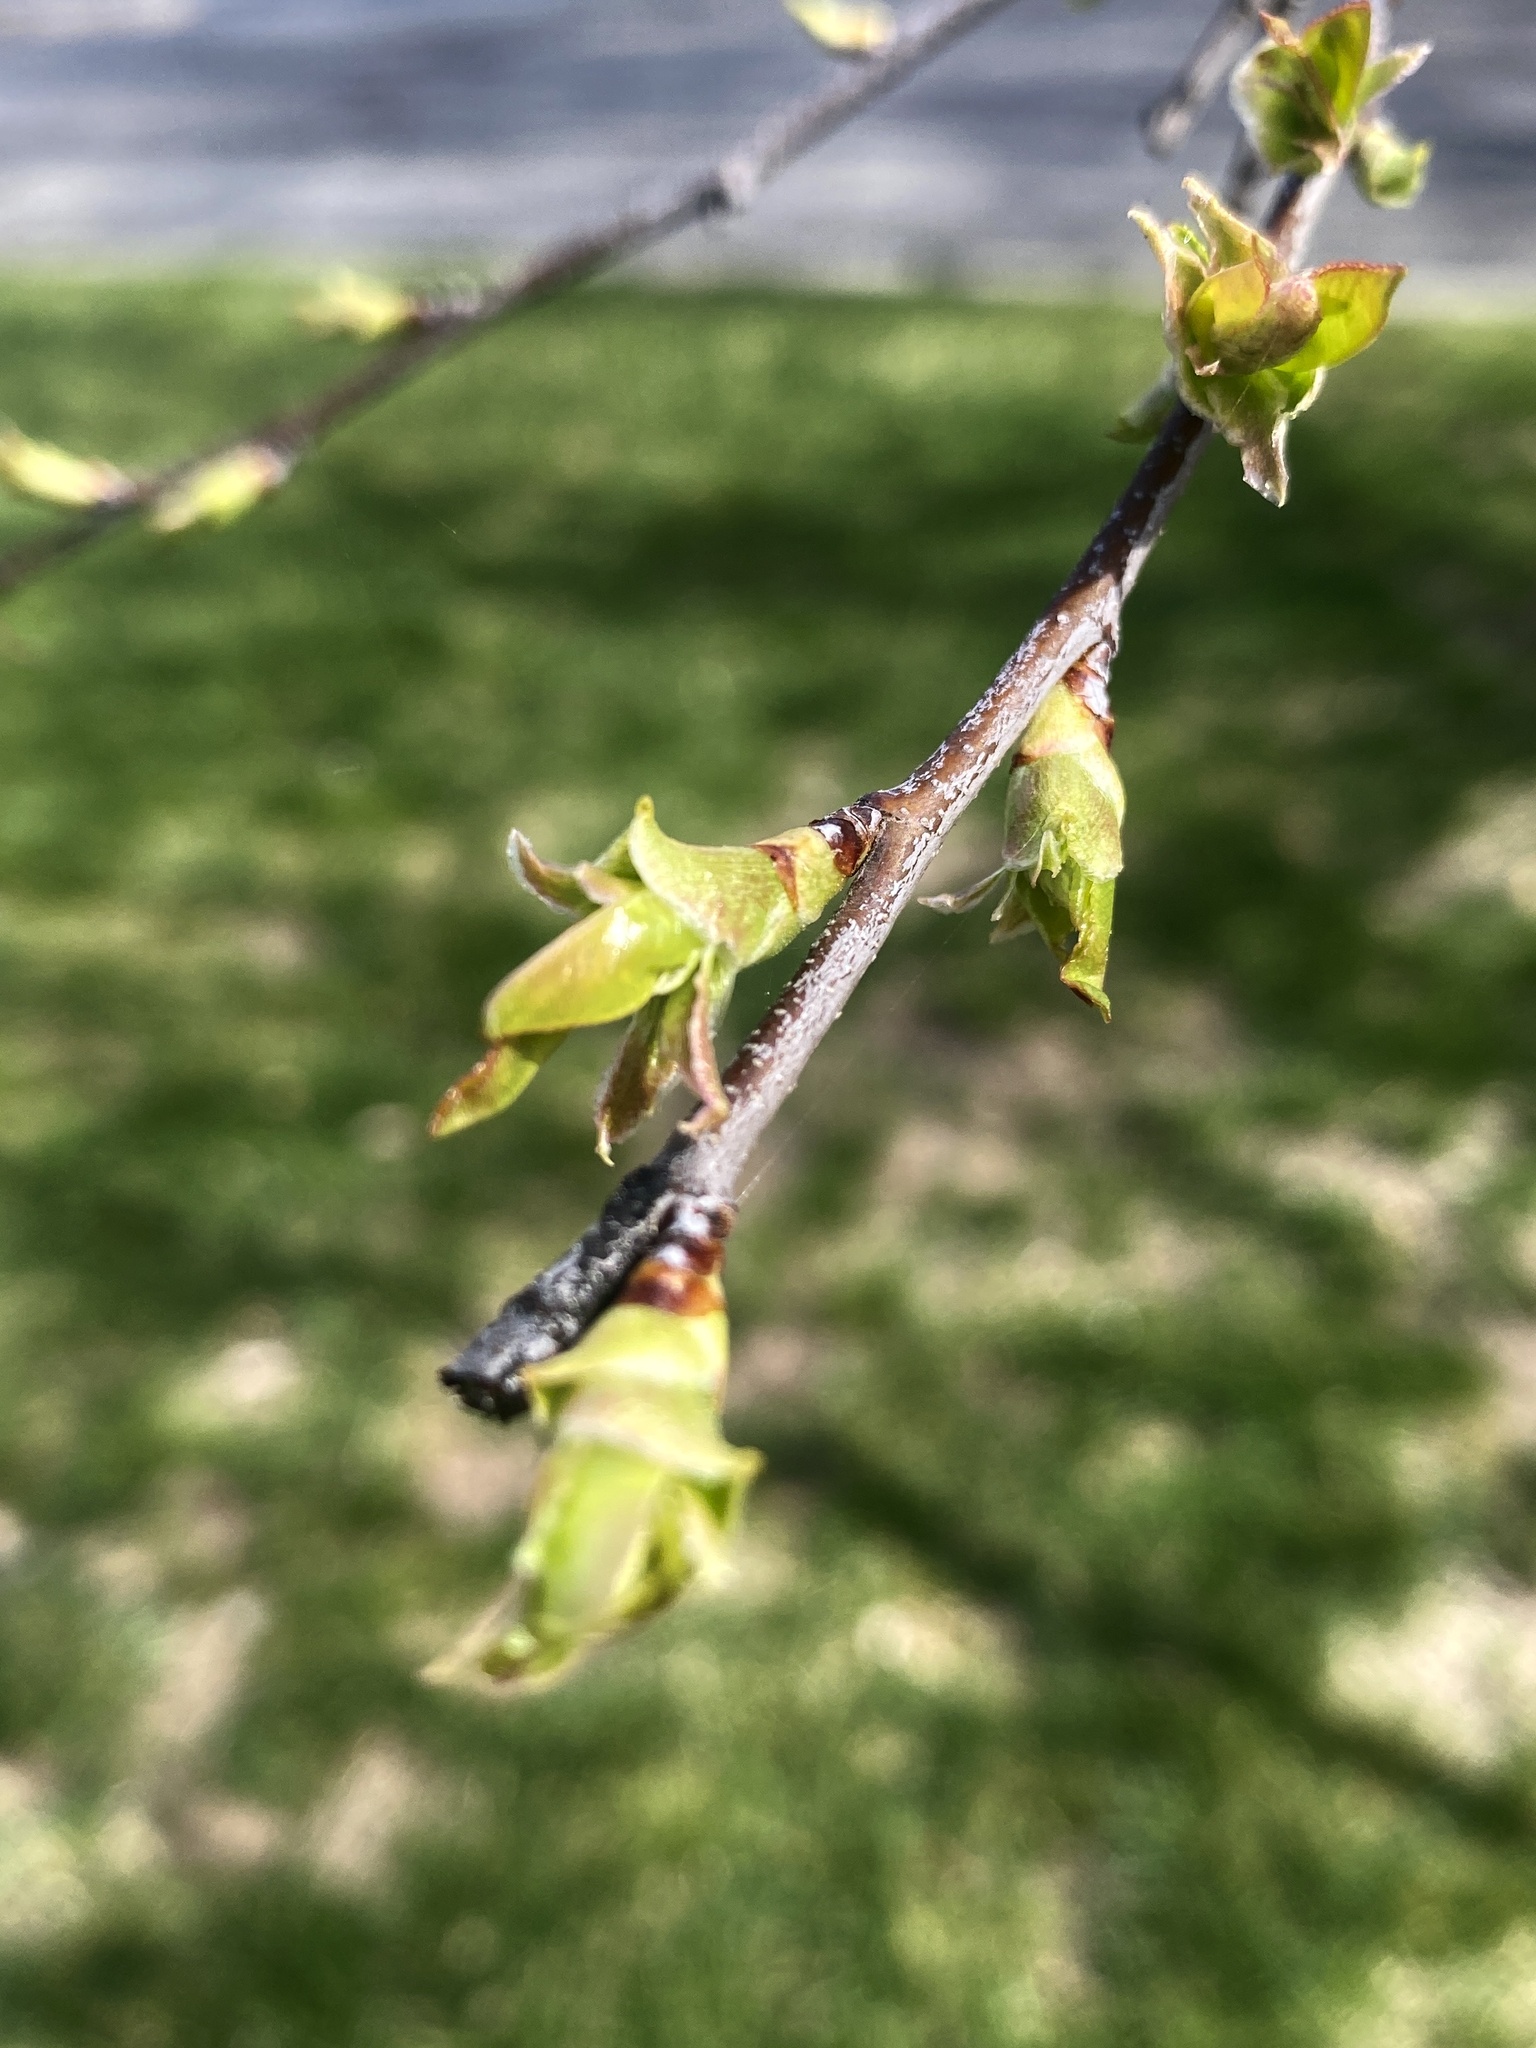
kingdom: Plantae
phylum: Tracheophyta
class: Magnoliopsida
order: Rosales
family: Rosaceae
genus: Prunus
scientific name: Prunus serotina
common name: Black cherry
